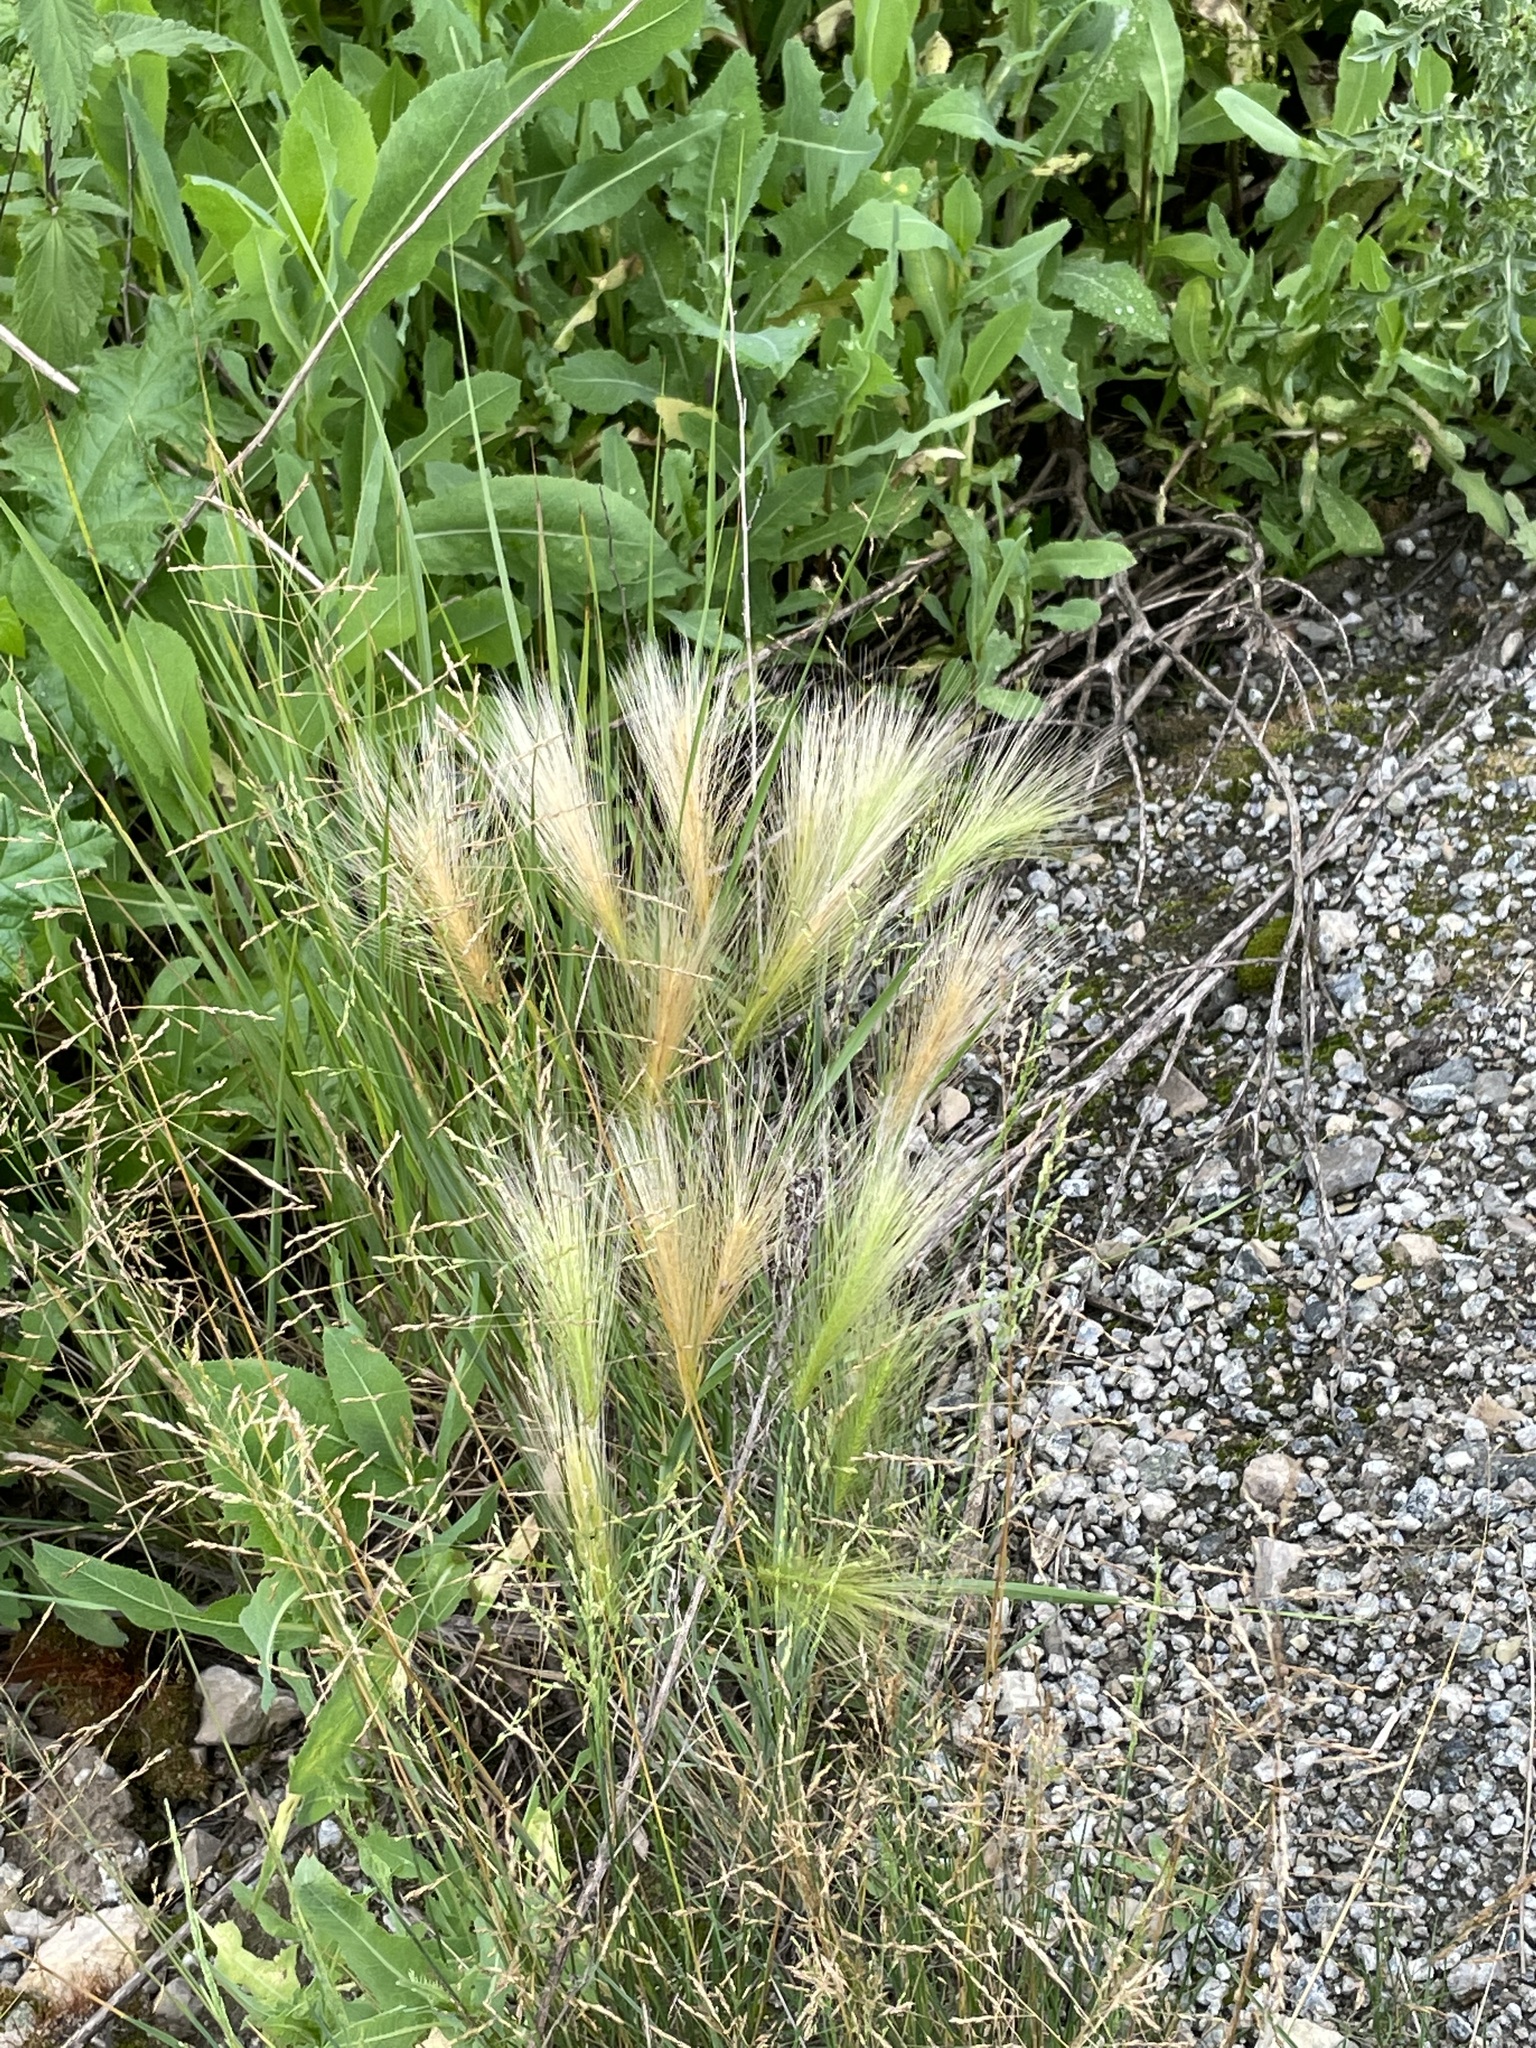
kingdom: Plantae
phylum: Tracheophyta
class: Liliopsida
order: Poales
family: Poaceae
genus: Hordeum
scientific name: Hordeum jubatum
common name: Foxtail barley
